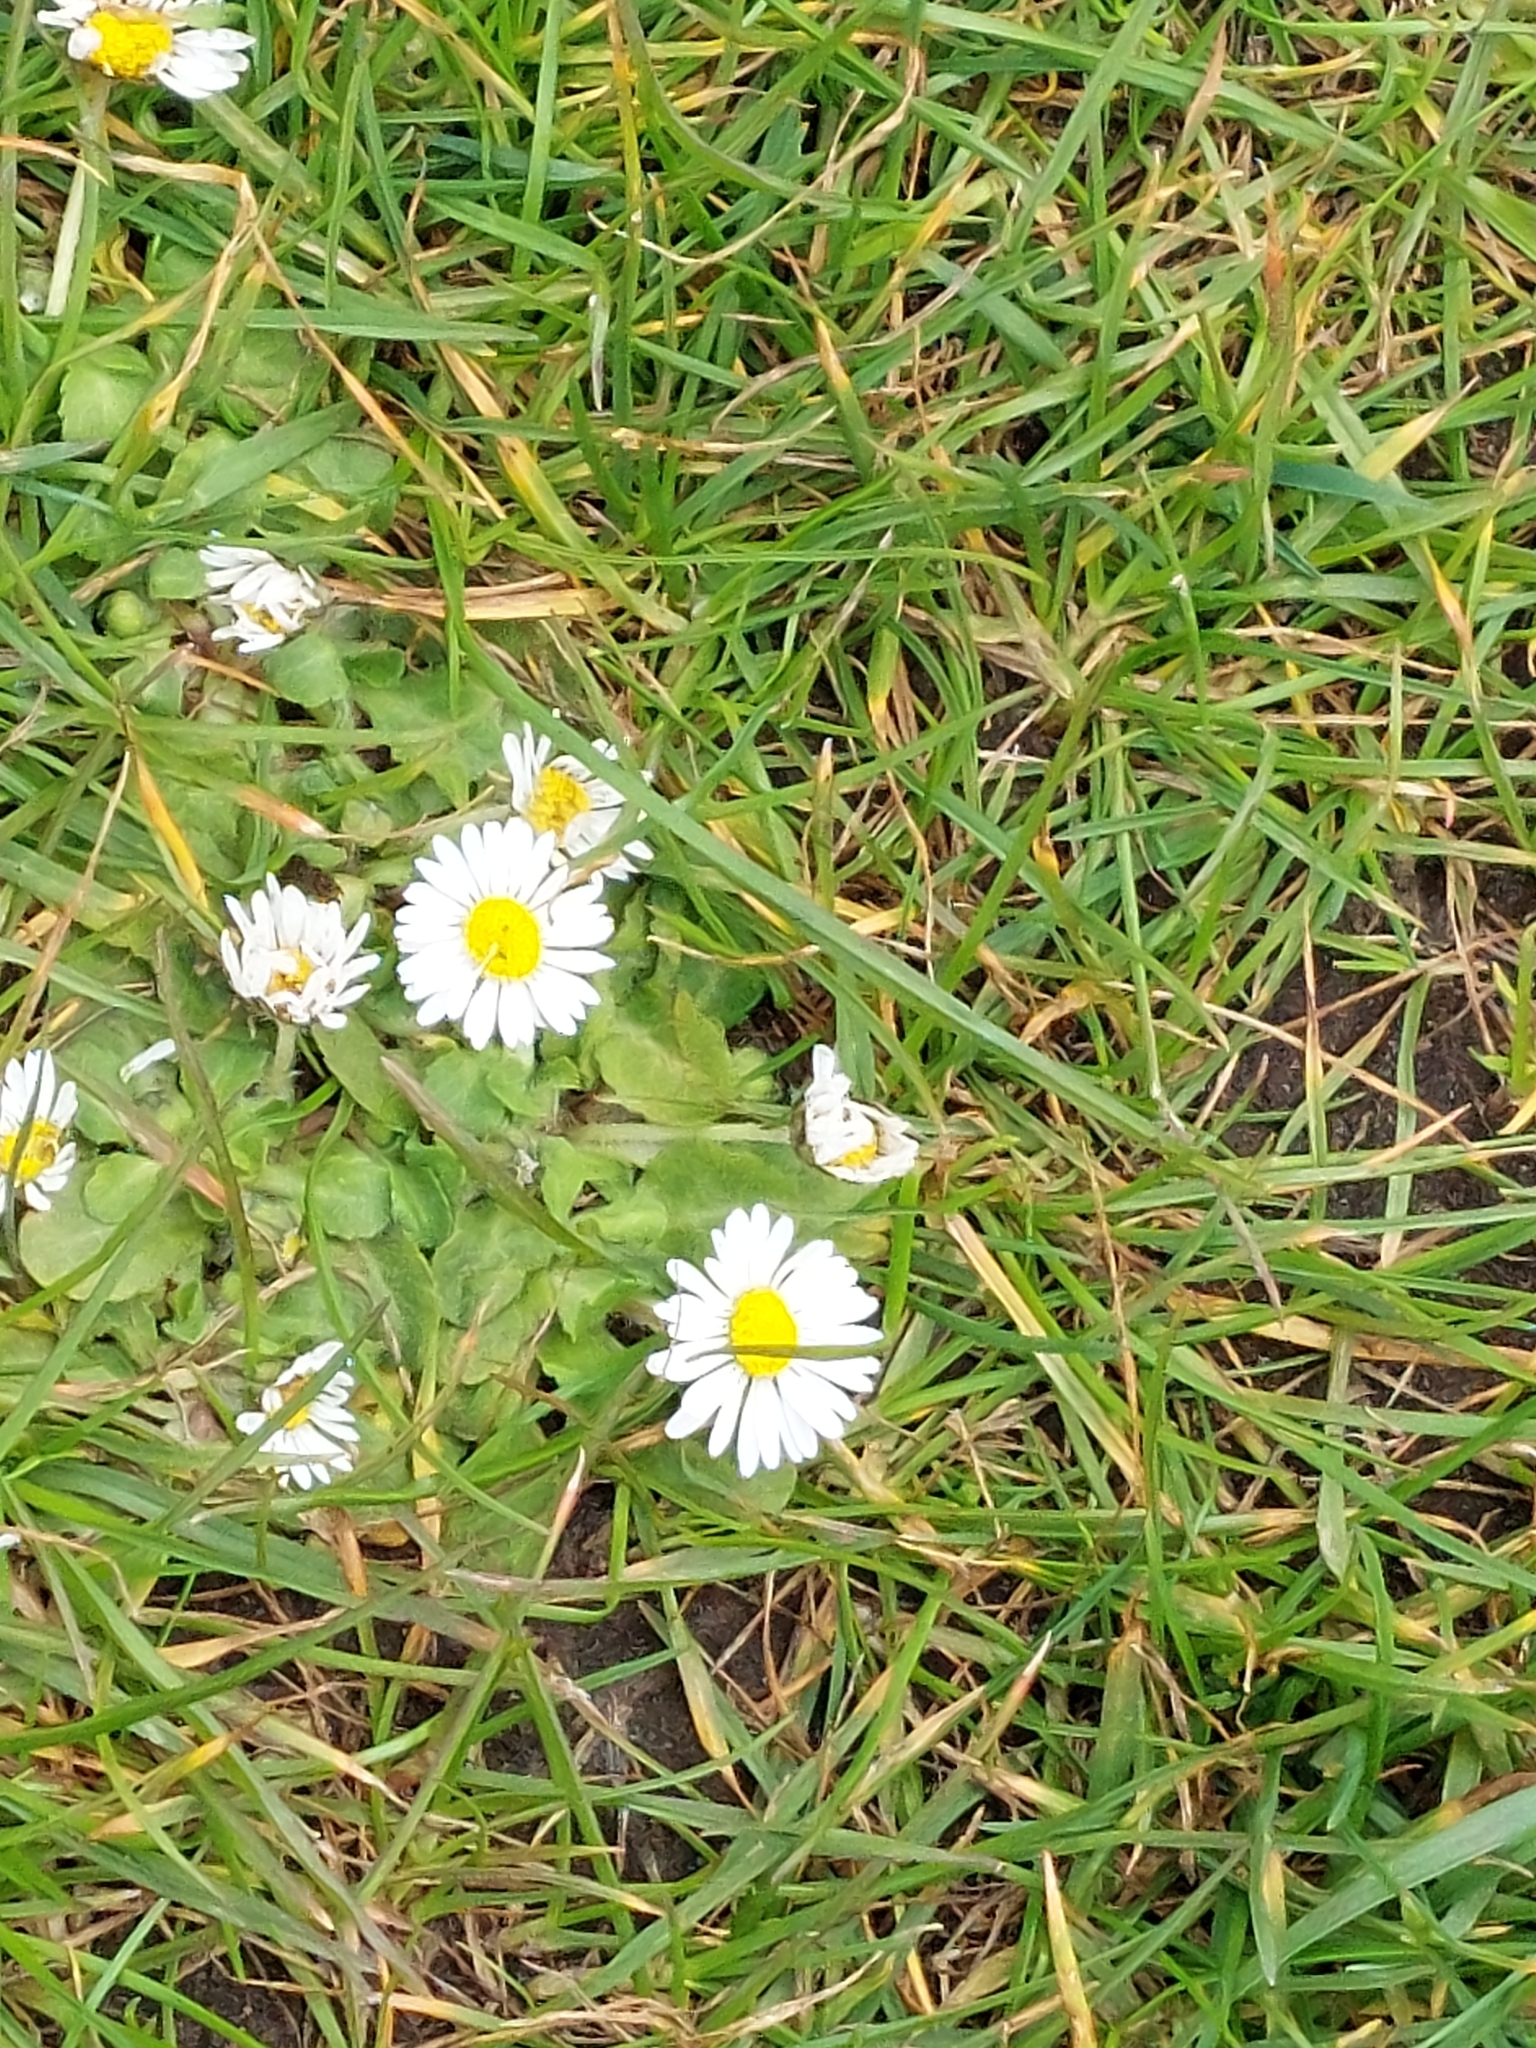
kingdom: Plantae
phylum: Tracheophyta
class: Magnoliopsida
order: Asterales
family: Asteraceae
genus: Bellis
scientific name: Bellis perennis
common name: Lawndaisy
